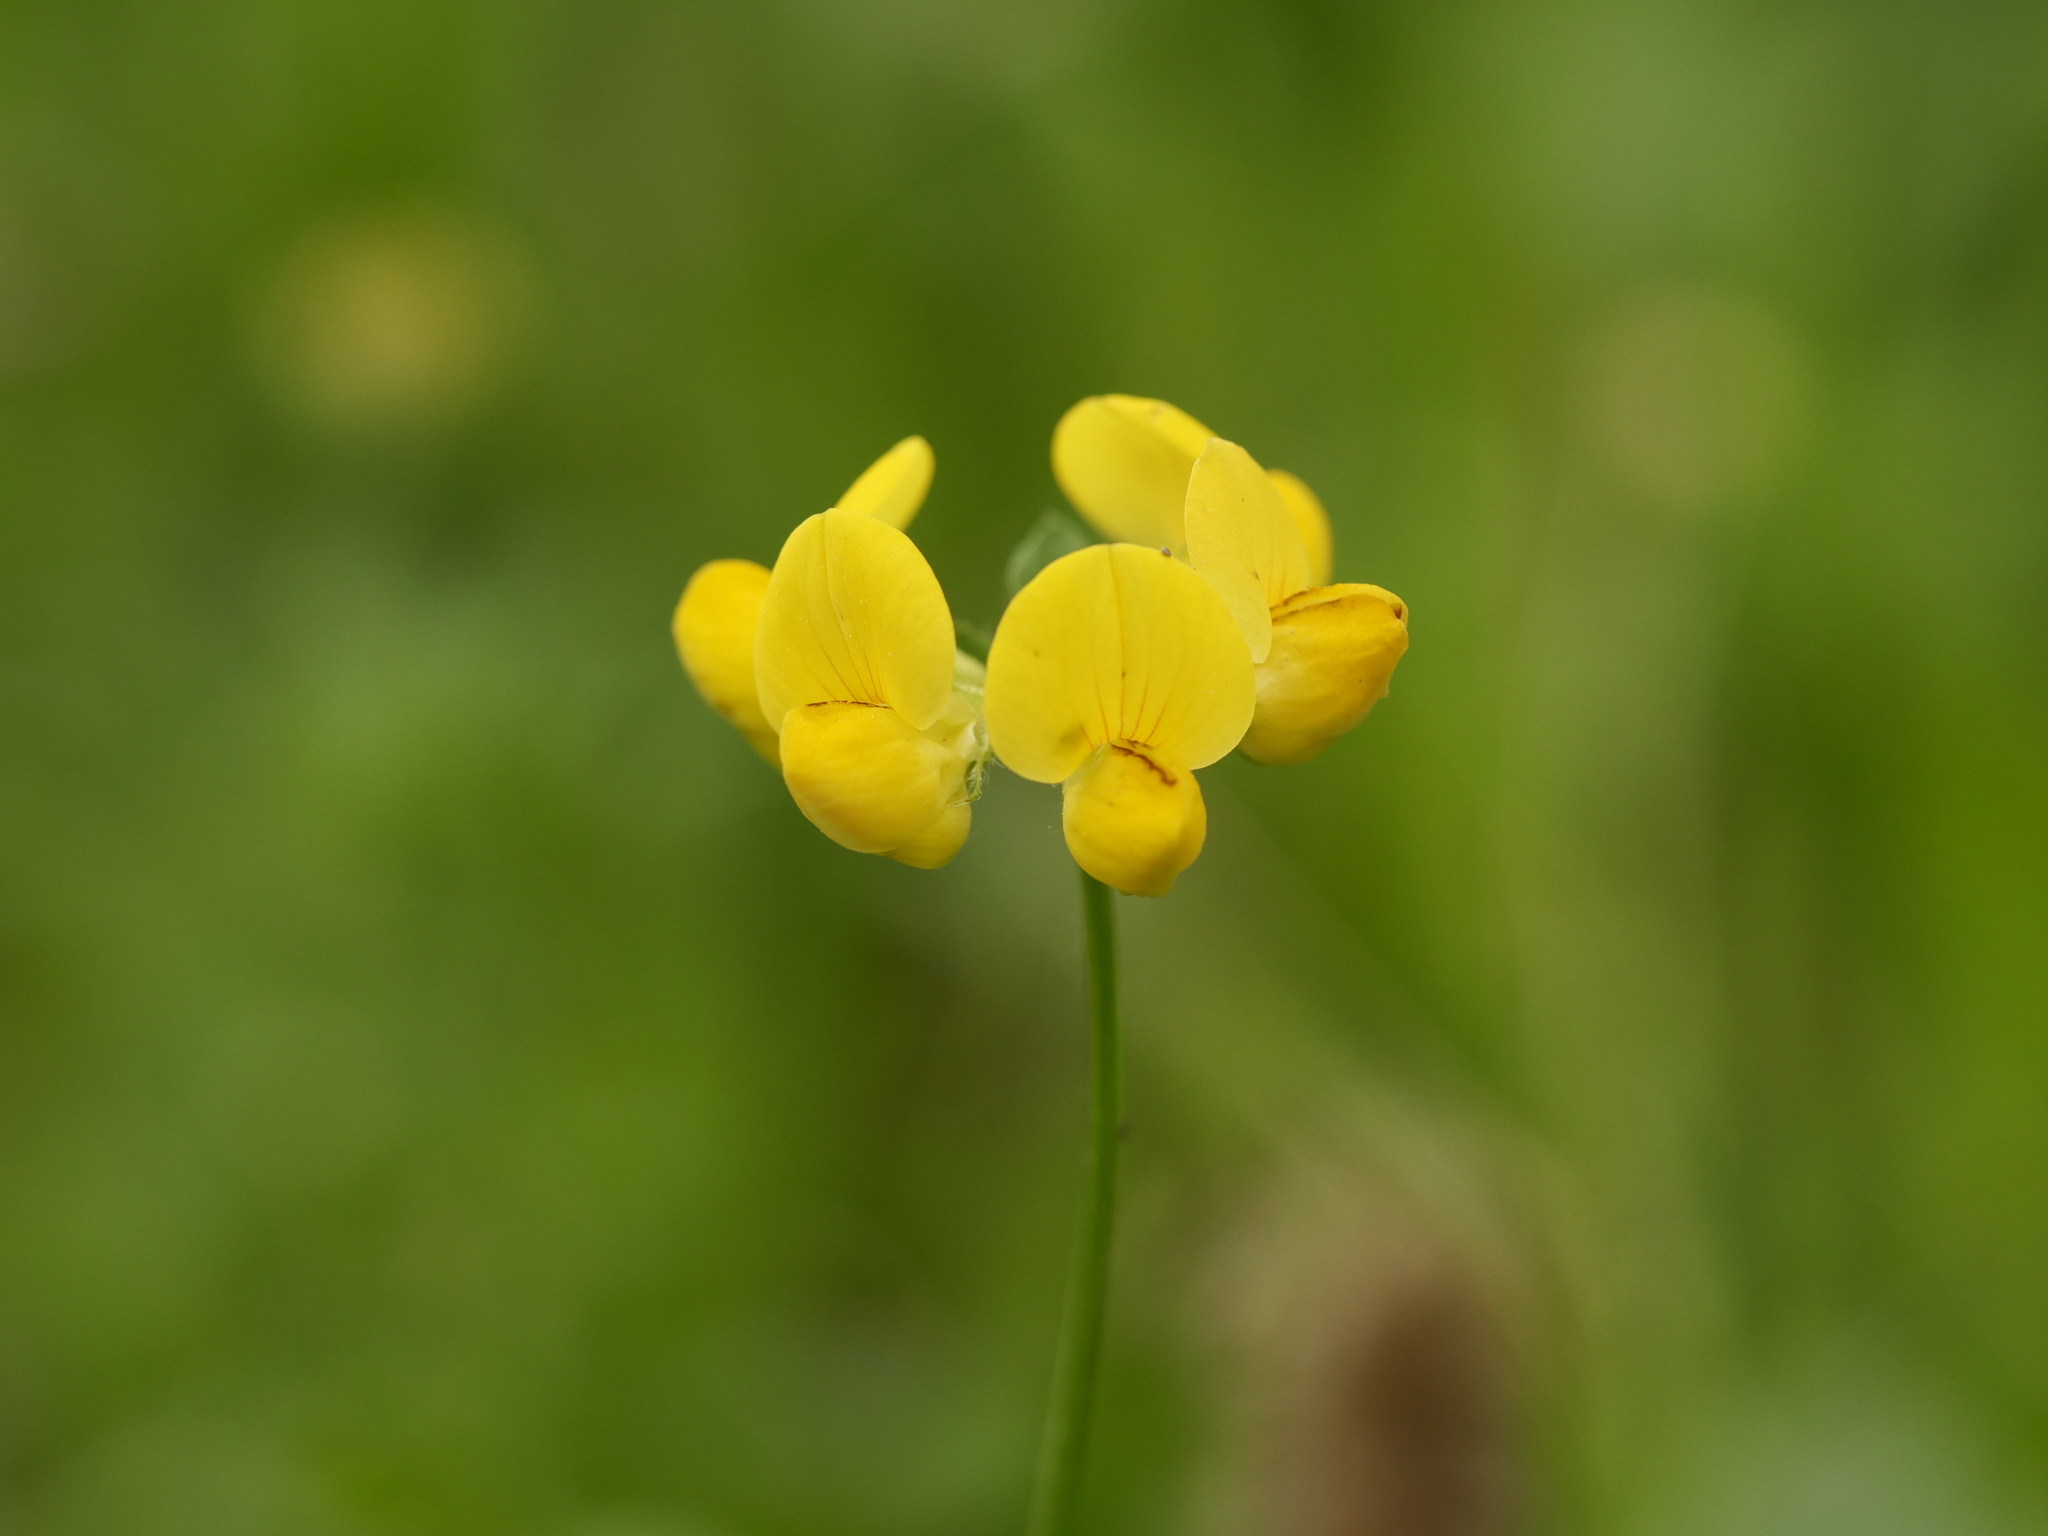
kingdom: Plantae
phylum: Tracheophyta
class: Magnoliopsida
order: Fabales
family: Fabaceae
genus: Lotus
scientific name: Lotus corniculatus
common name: Common bird's-foot-trefoil
